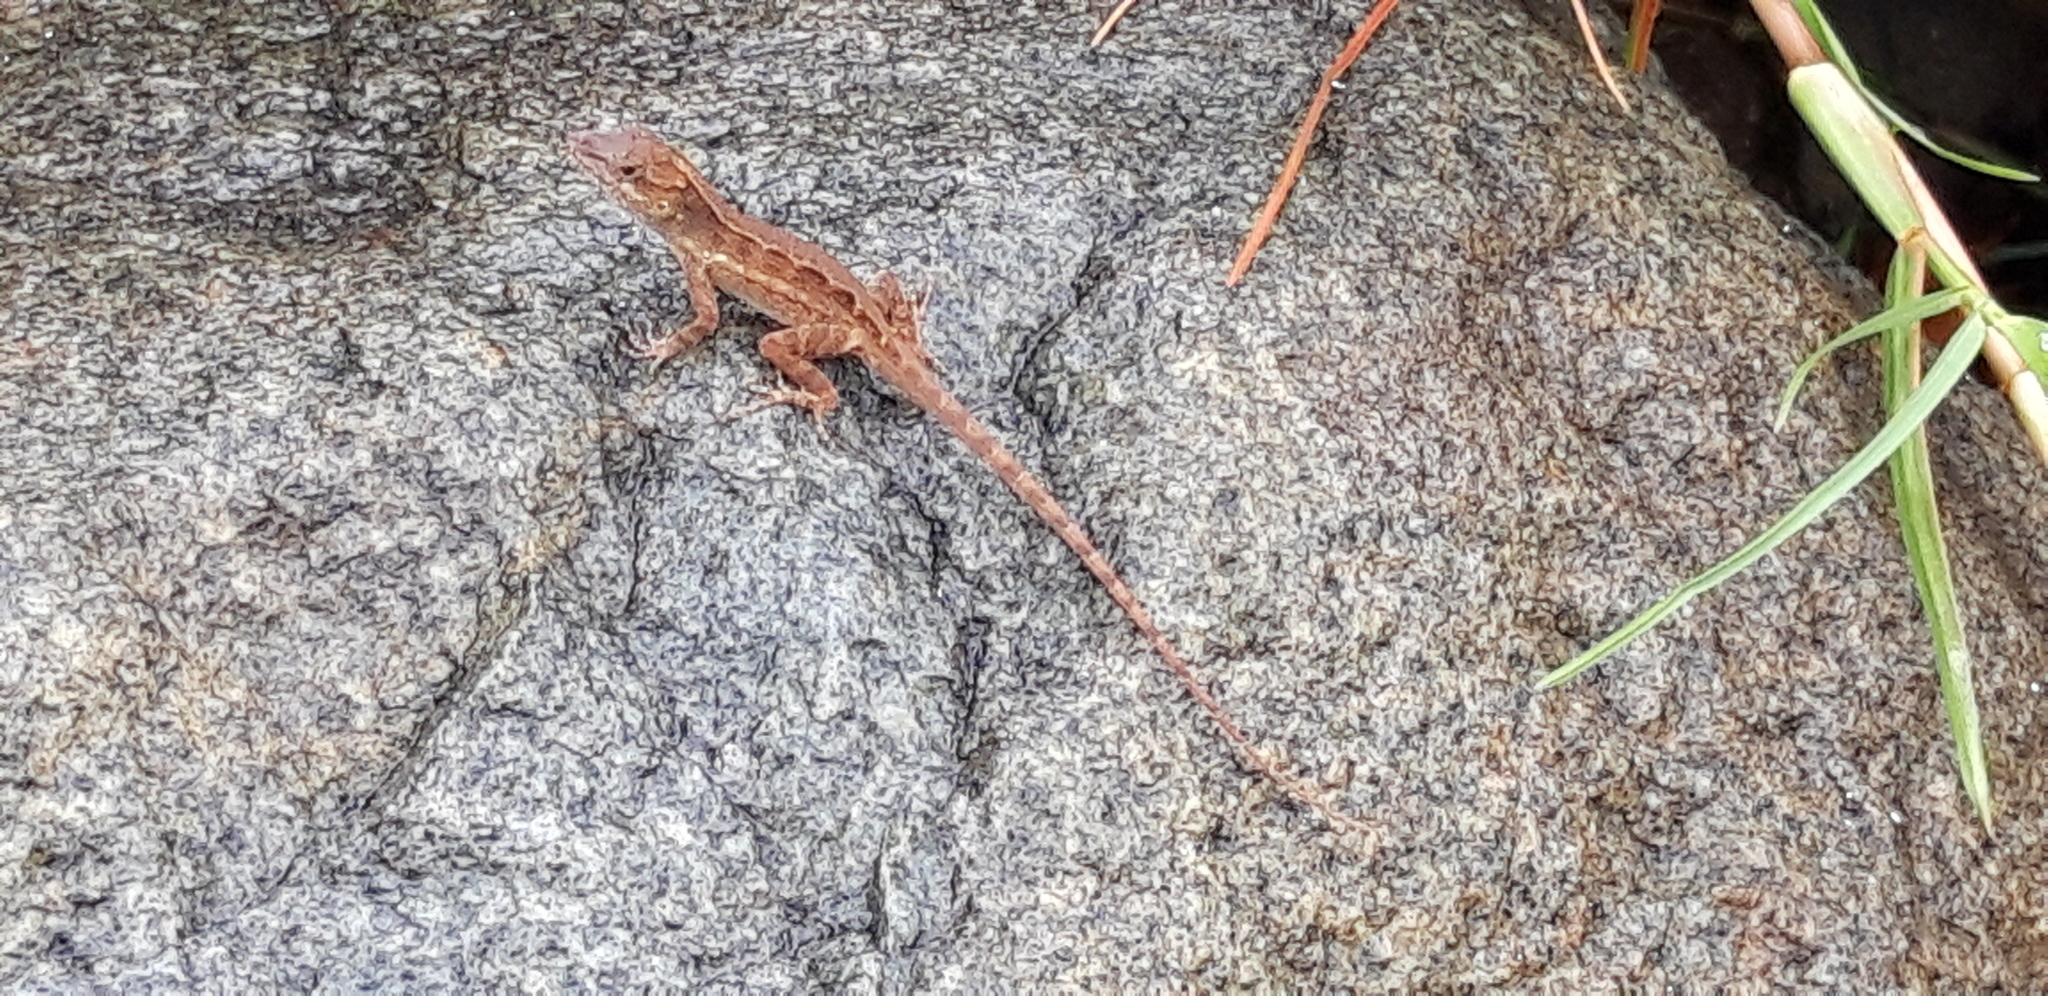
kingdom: Animalia
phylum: Chordata
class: Squamata
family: Dactyloidae
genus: Anolis
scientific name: Anolis gingivinus
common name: Anguilla anole
